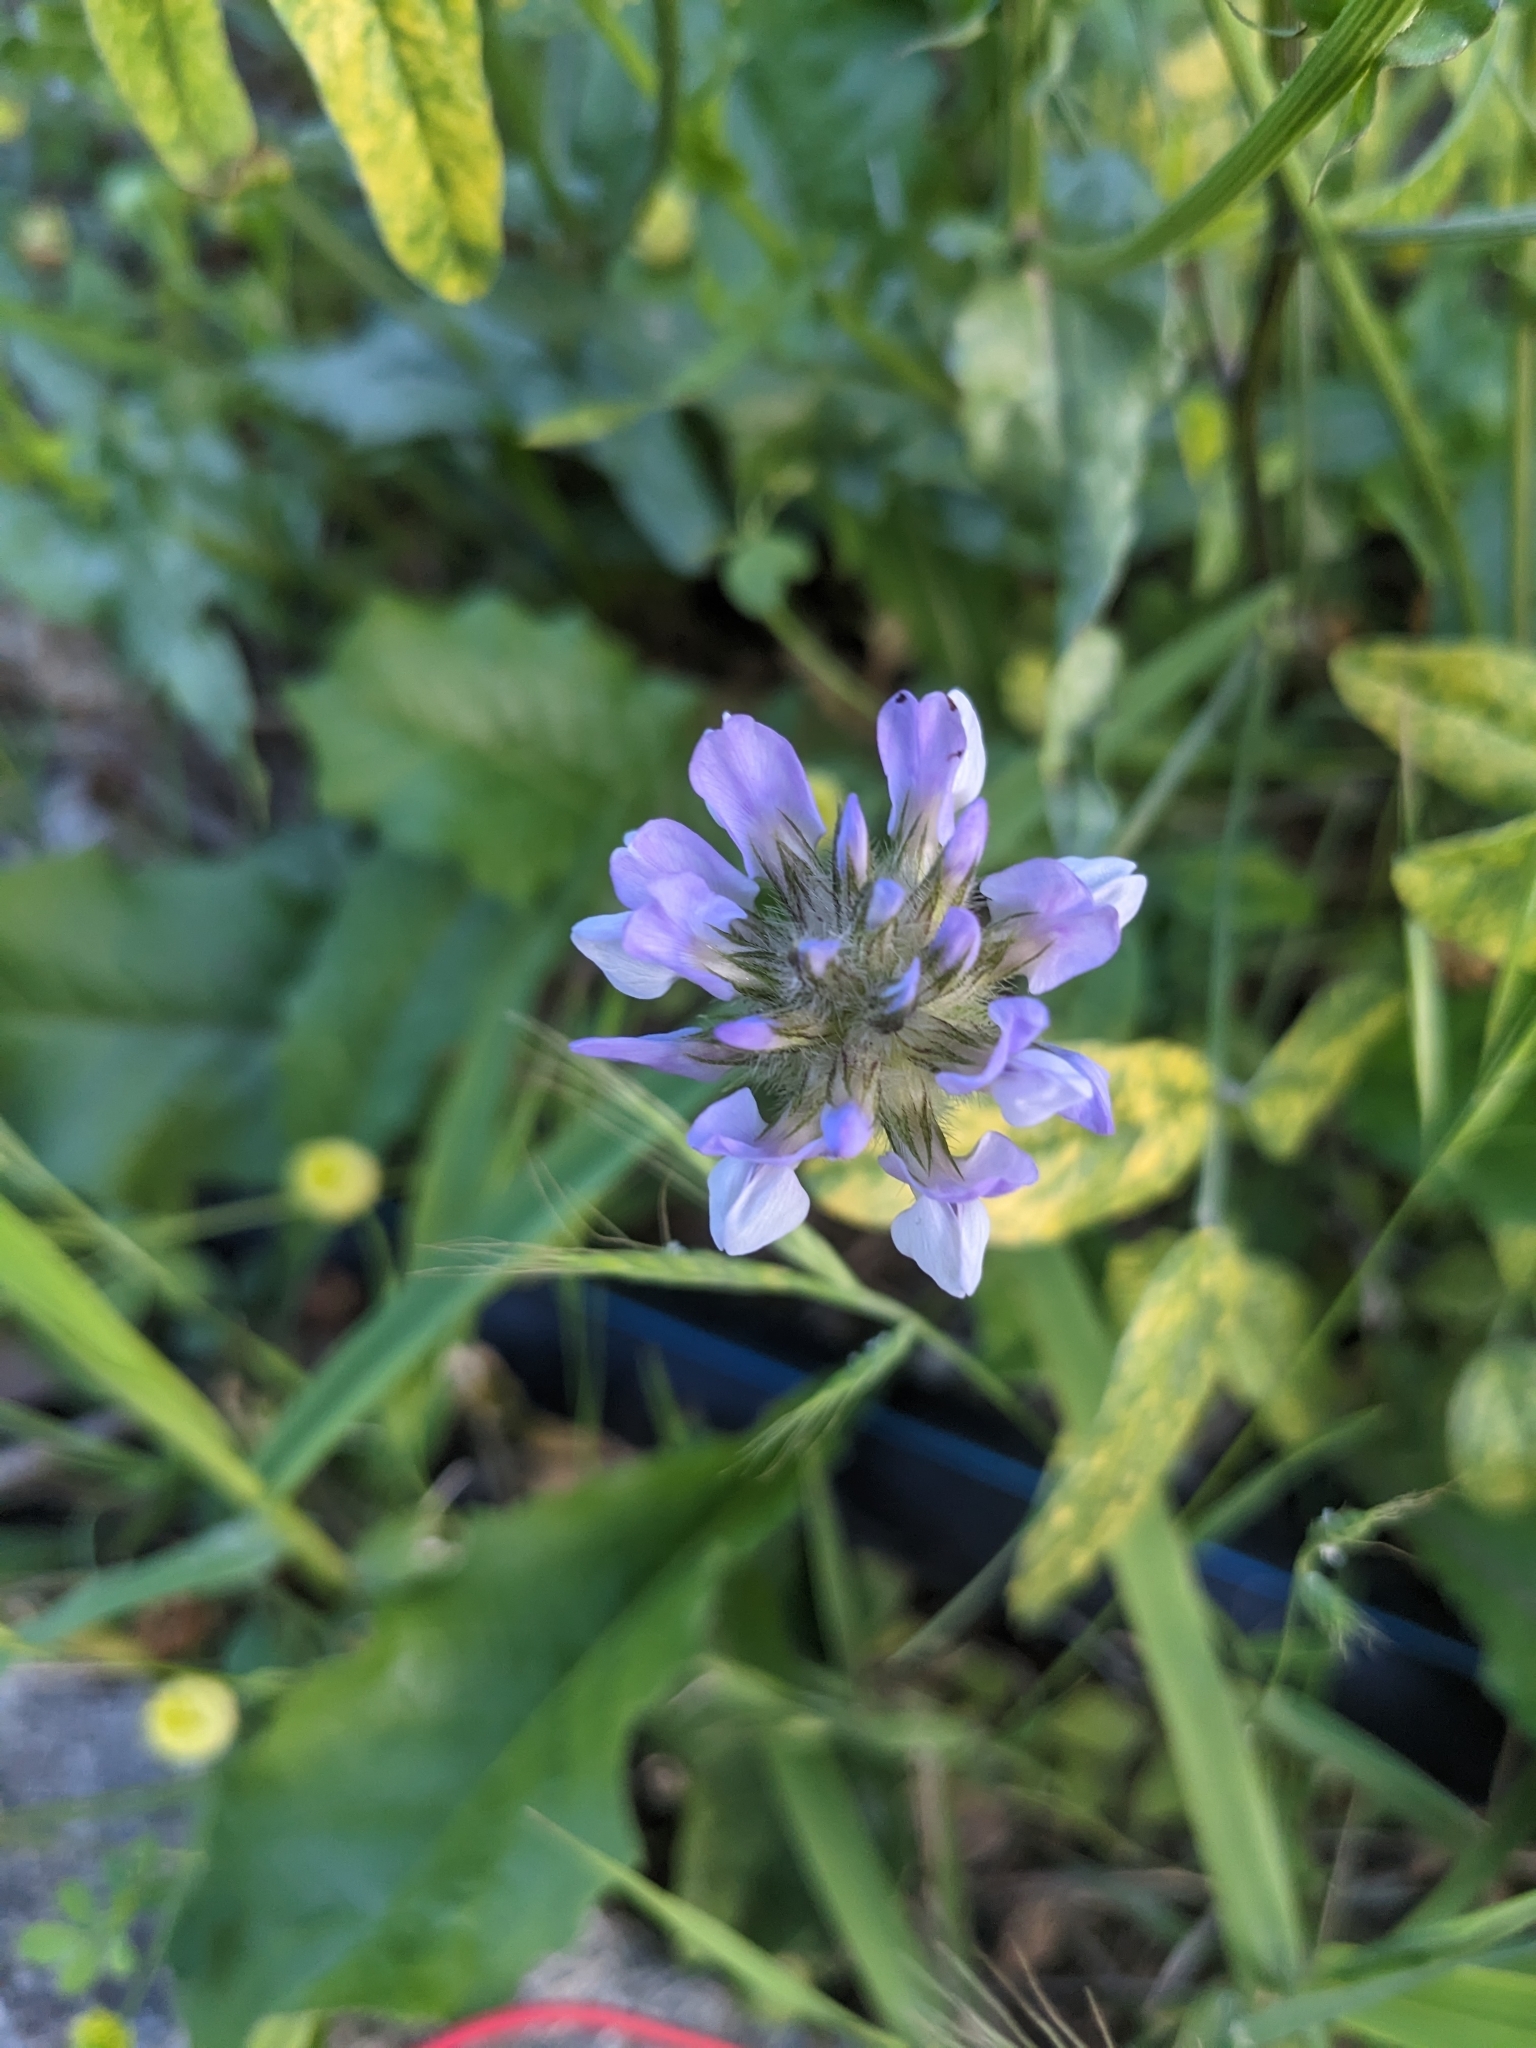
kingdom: Plantae
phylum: Tracheophyta
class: Magnoliopsida
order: Fabales
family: Fabaceae
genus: Bituminaria
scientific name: Bituminaria bituminosa
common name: Arabian pea
